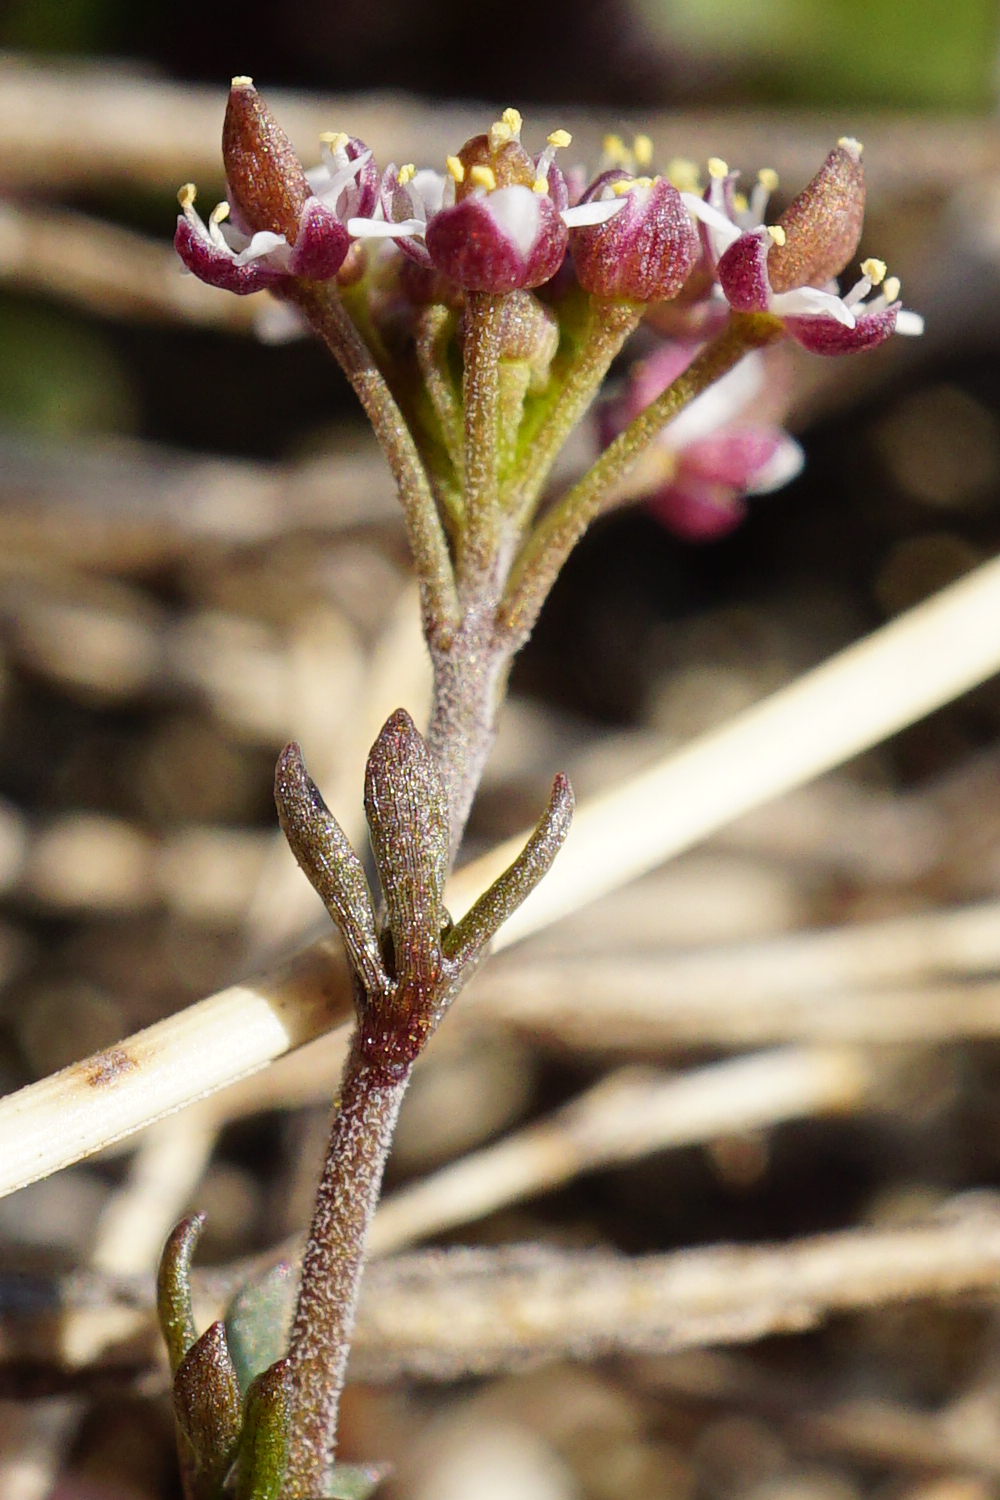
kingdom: Plantae
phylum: Tracheophyta
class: Magnoliopsida
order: Brassicales
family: Brassicaceae
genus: Hornungia
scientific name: Hornungia petraea
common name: Hutchinsia
